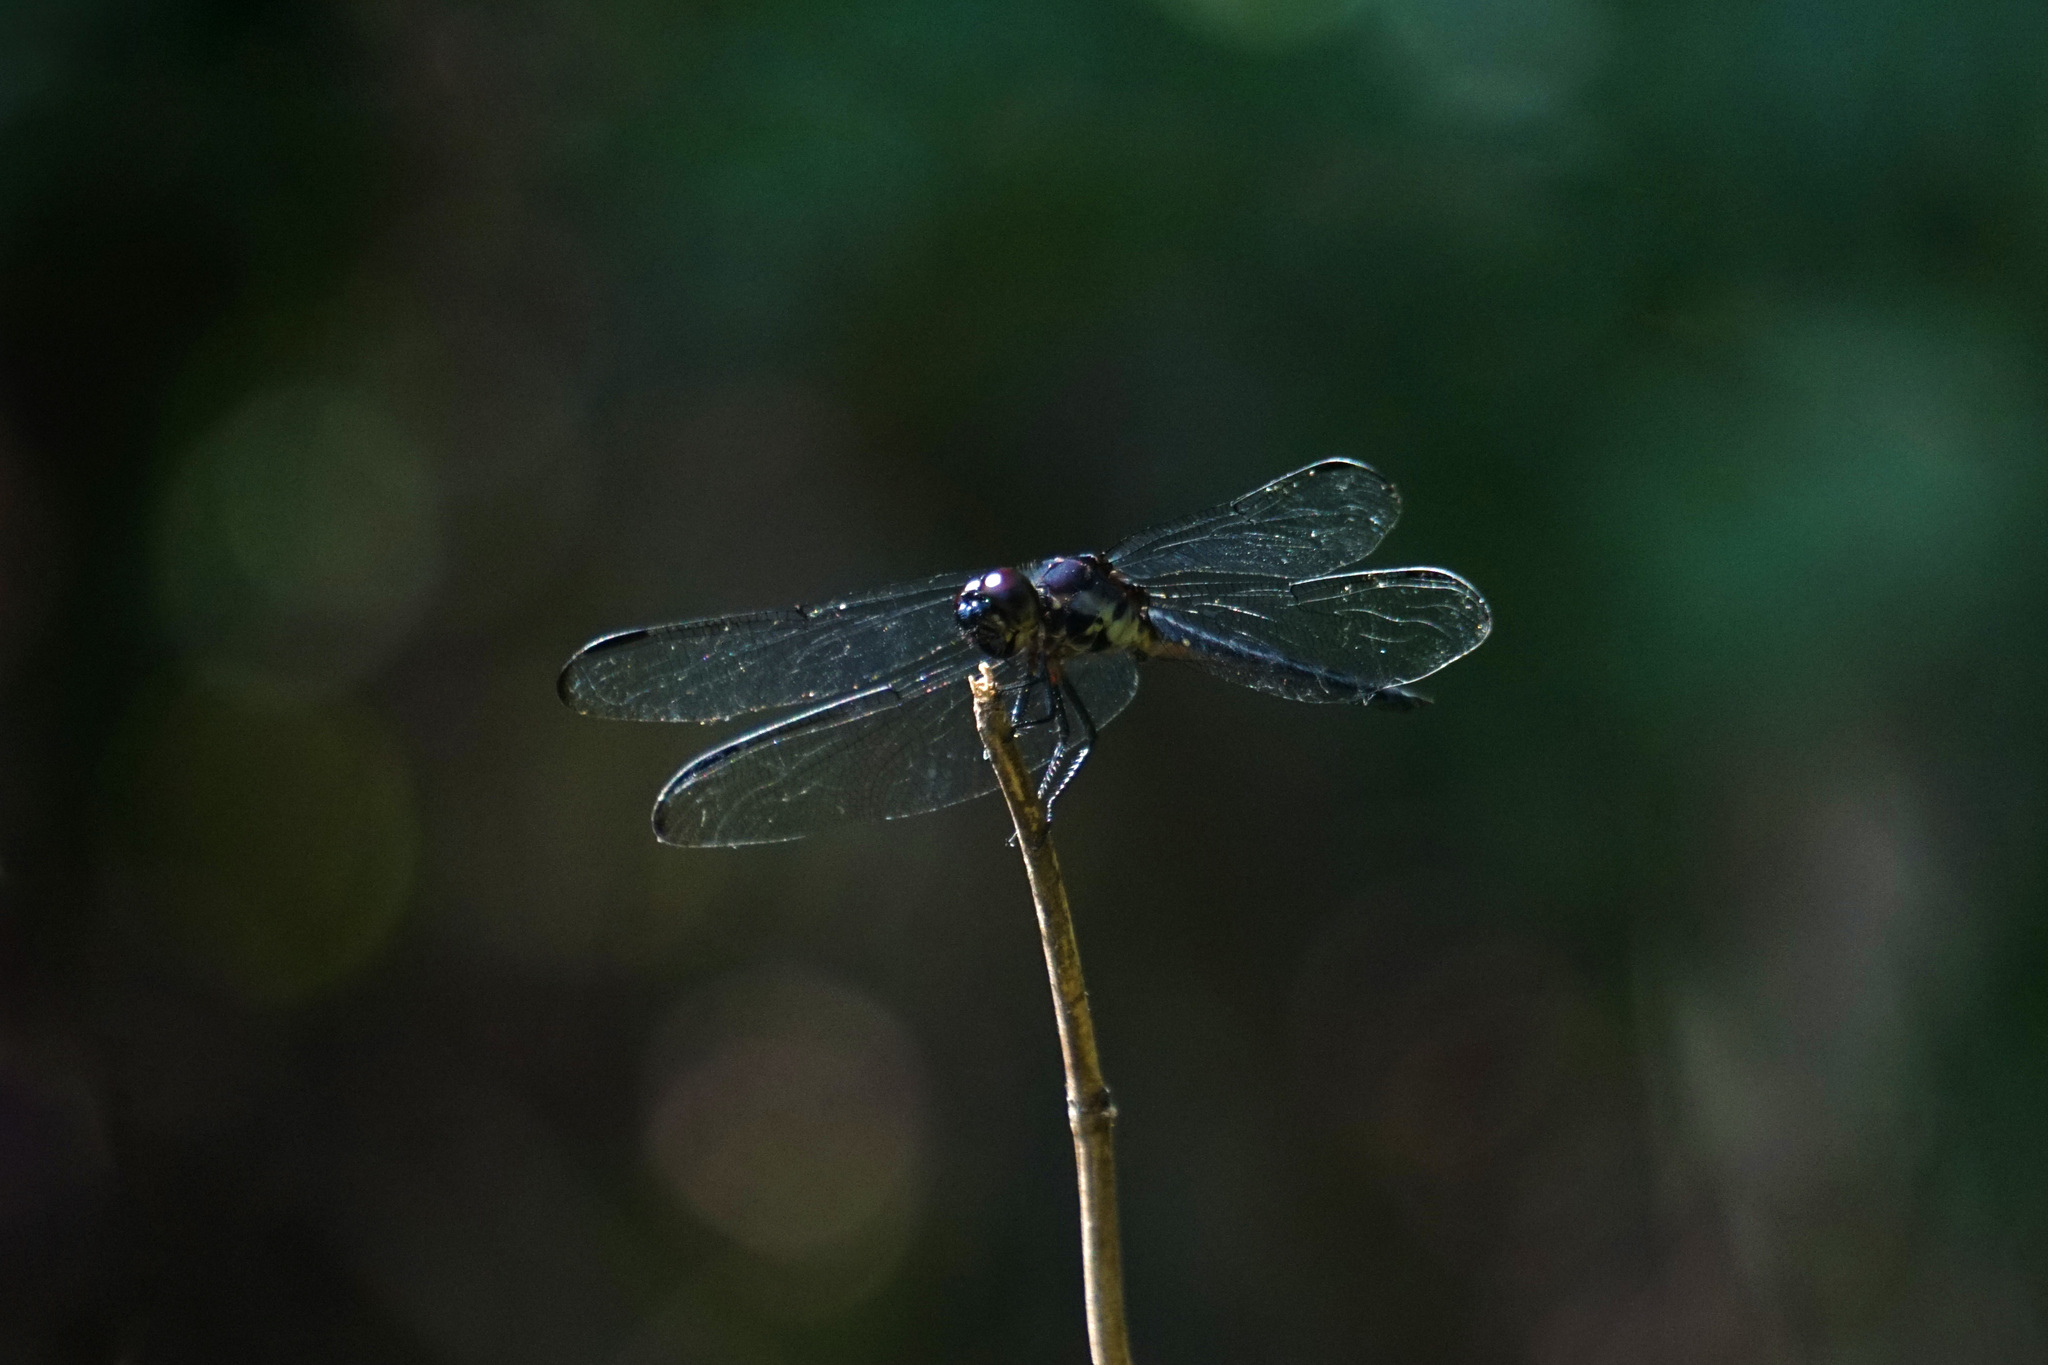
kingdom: Animalia
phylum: Arthropoda
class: Insecta
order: Odonata
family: Libellulidae
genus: Libellula
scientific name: Libellula incesta
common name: Slaty skimmer
